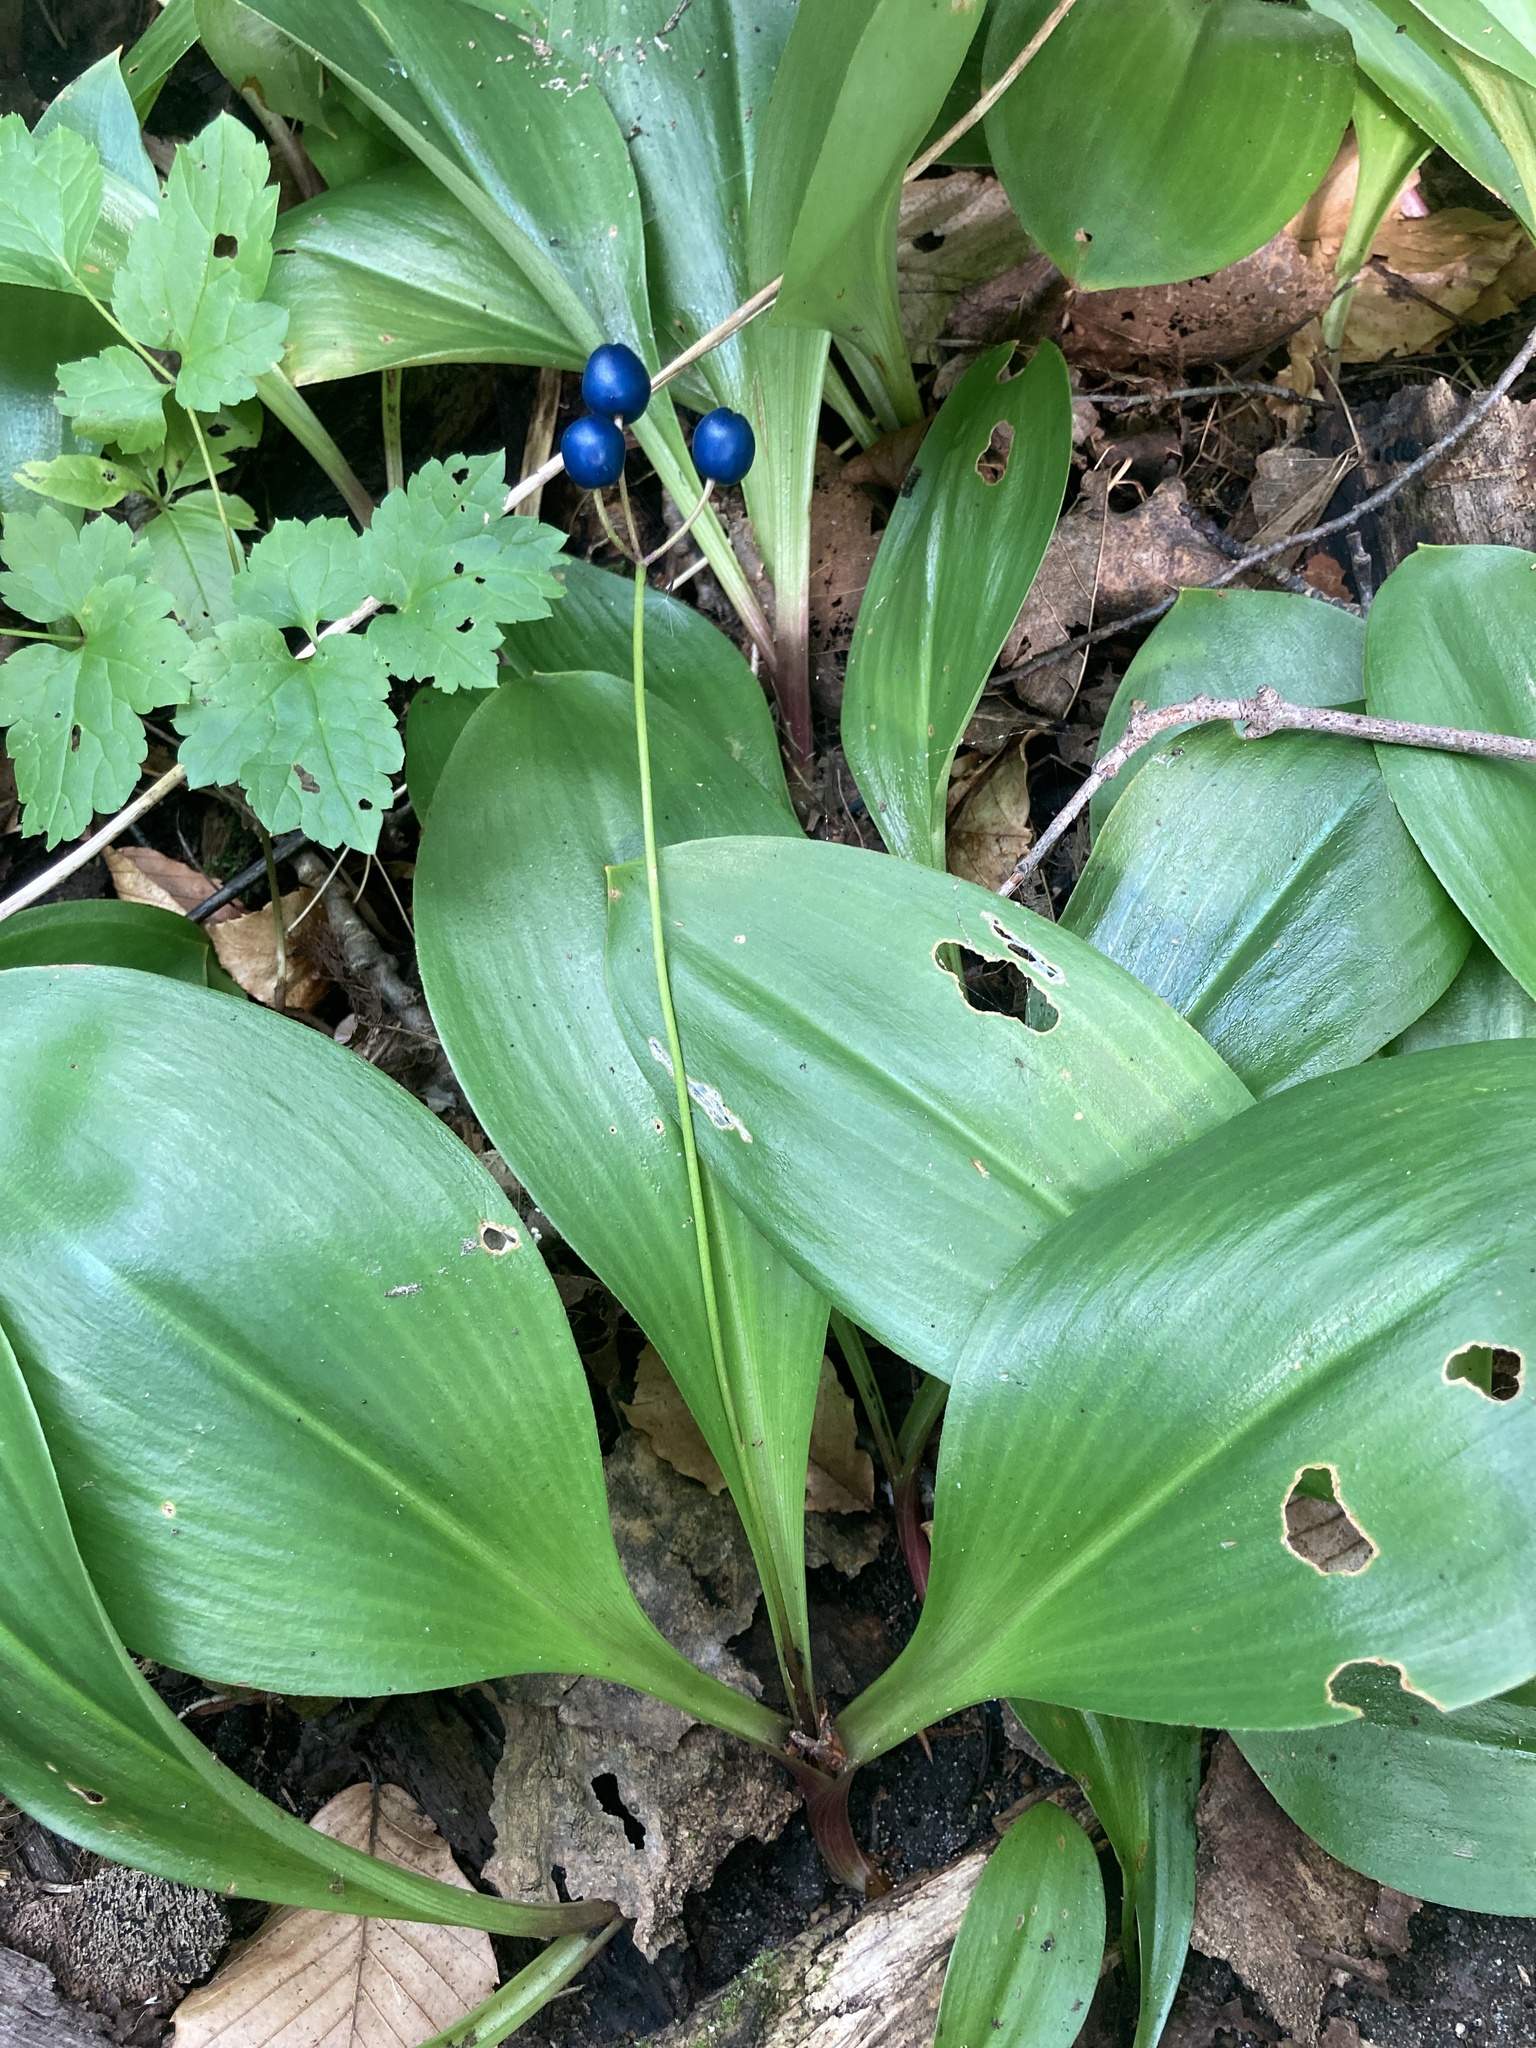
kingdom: Plantae
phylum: Tracheophyta
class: Liliopsida
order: Liliales
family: Liliaceae
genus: Clintonia
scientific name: Clintonia borealis
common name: Yellow clintonia
